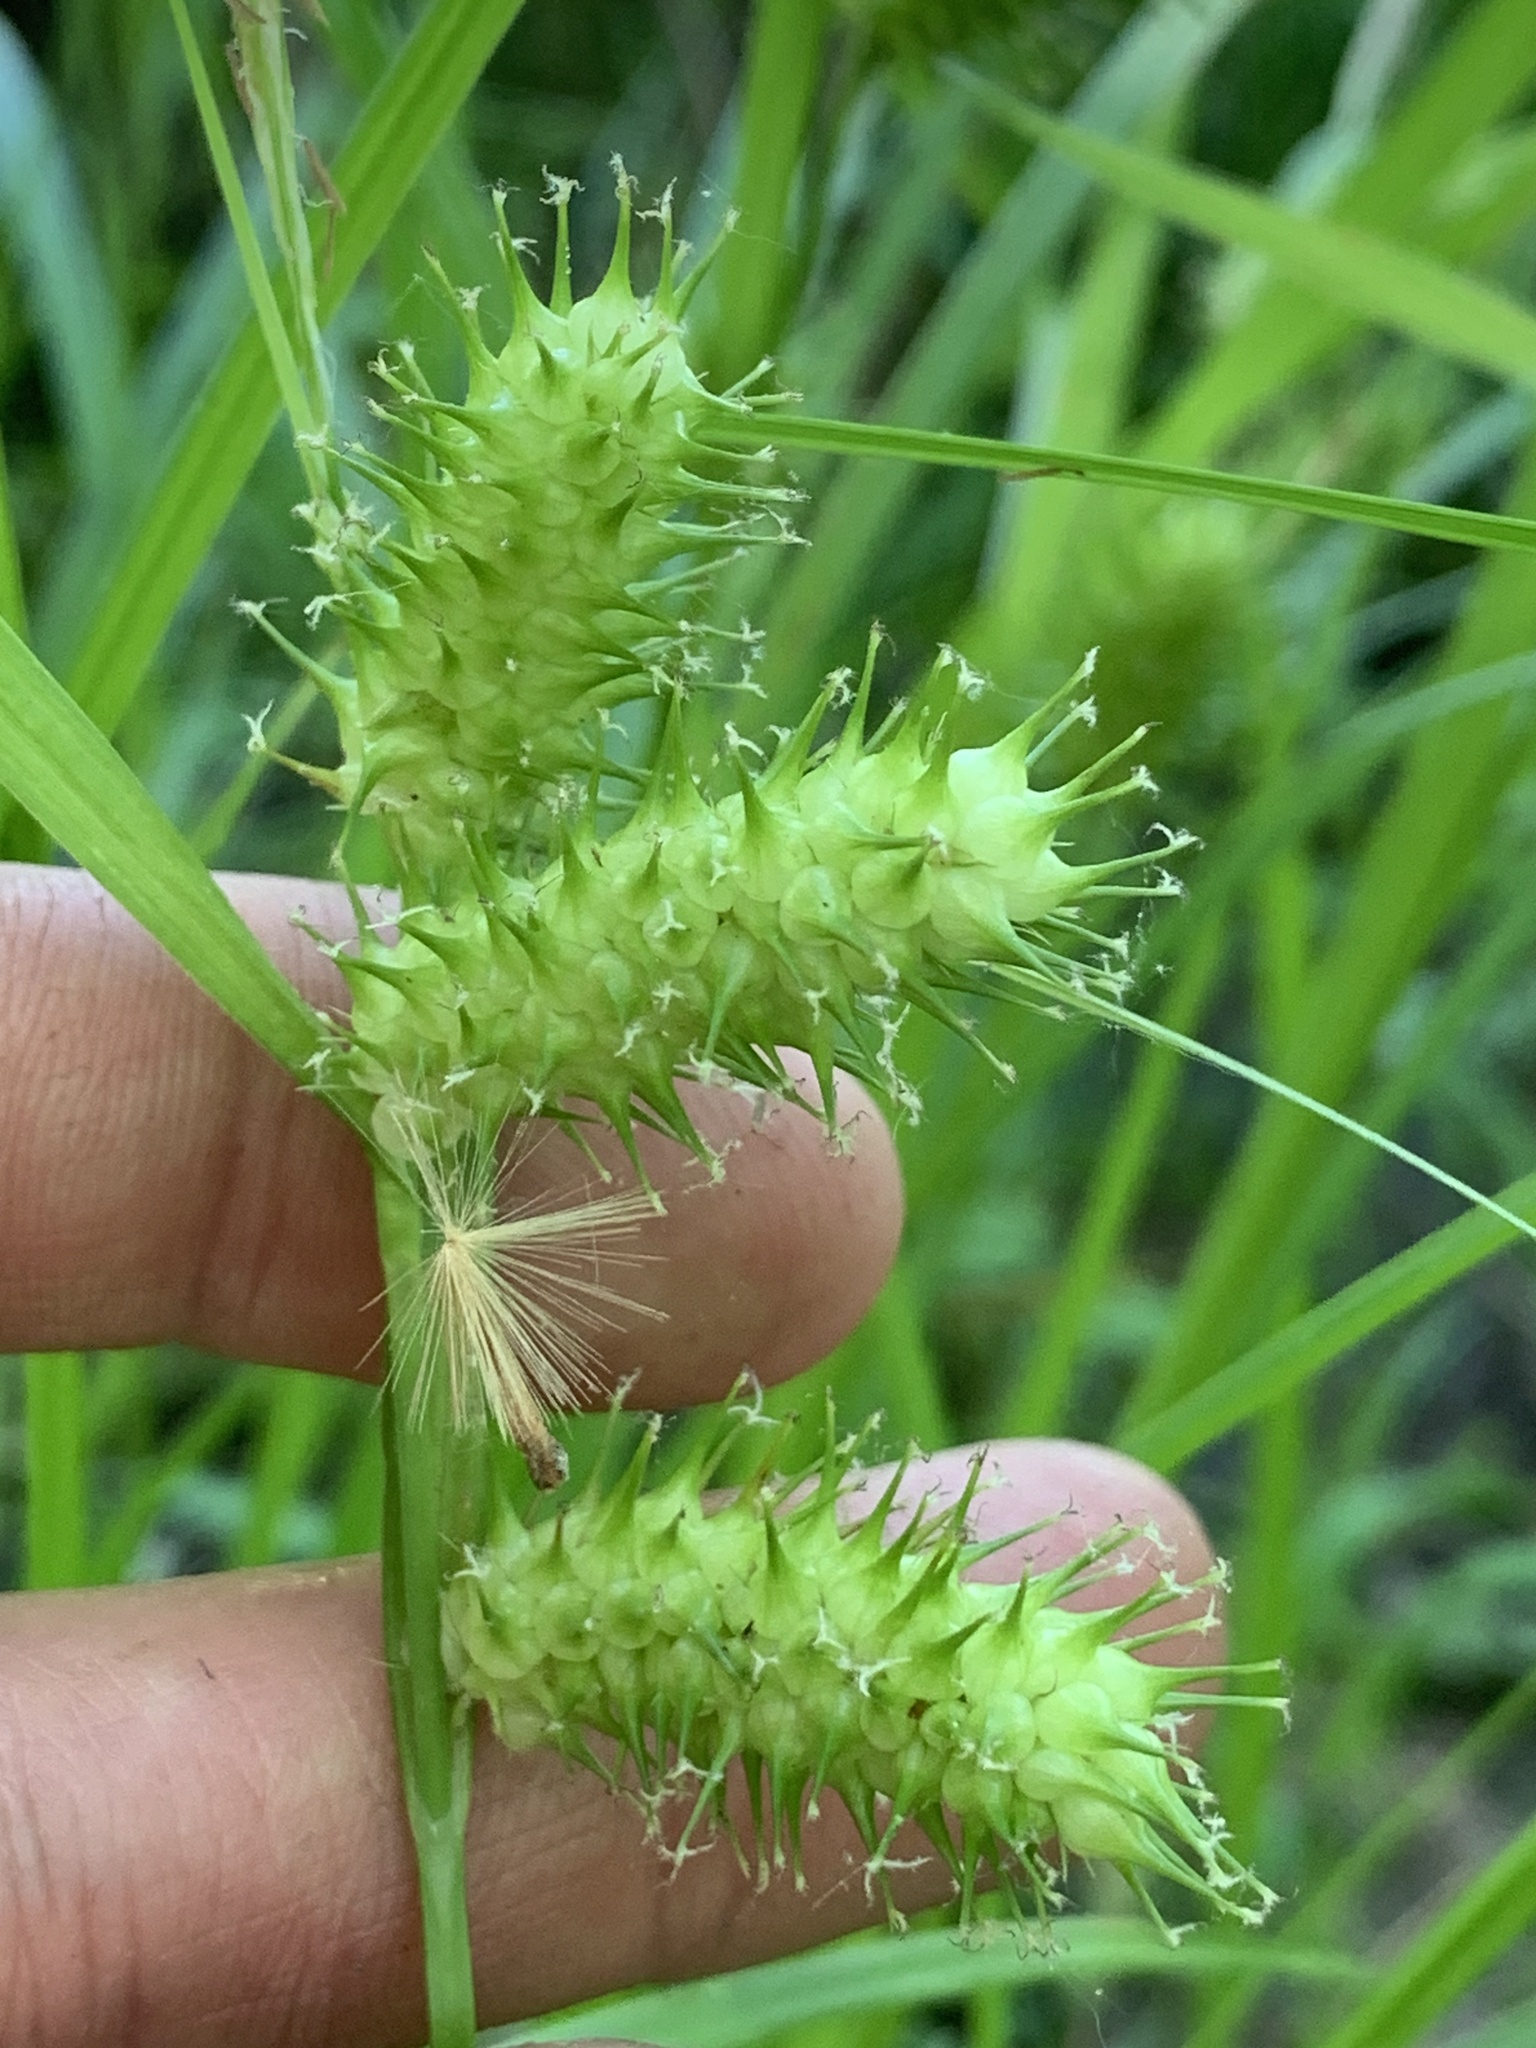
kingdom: Plantae
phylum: Tracheophyta
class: Liliopsida
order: Poales
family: Cyperaceae
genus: Carex
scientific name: Carex lurida
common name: Sallow sedge
